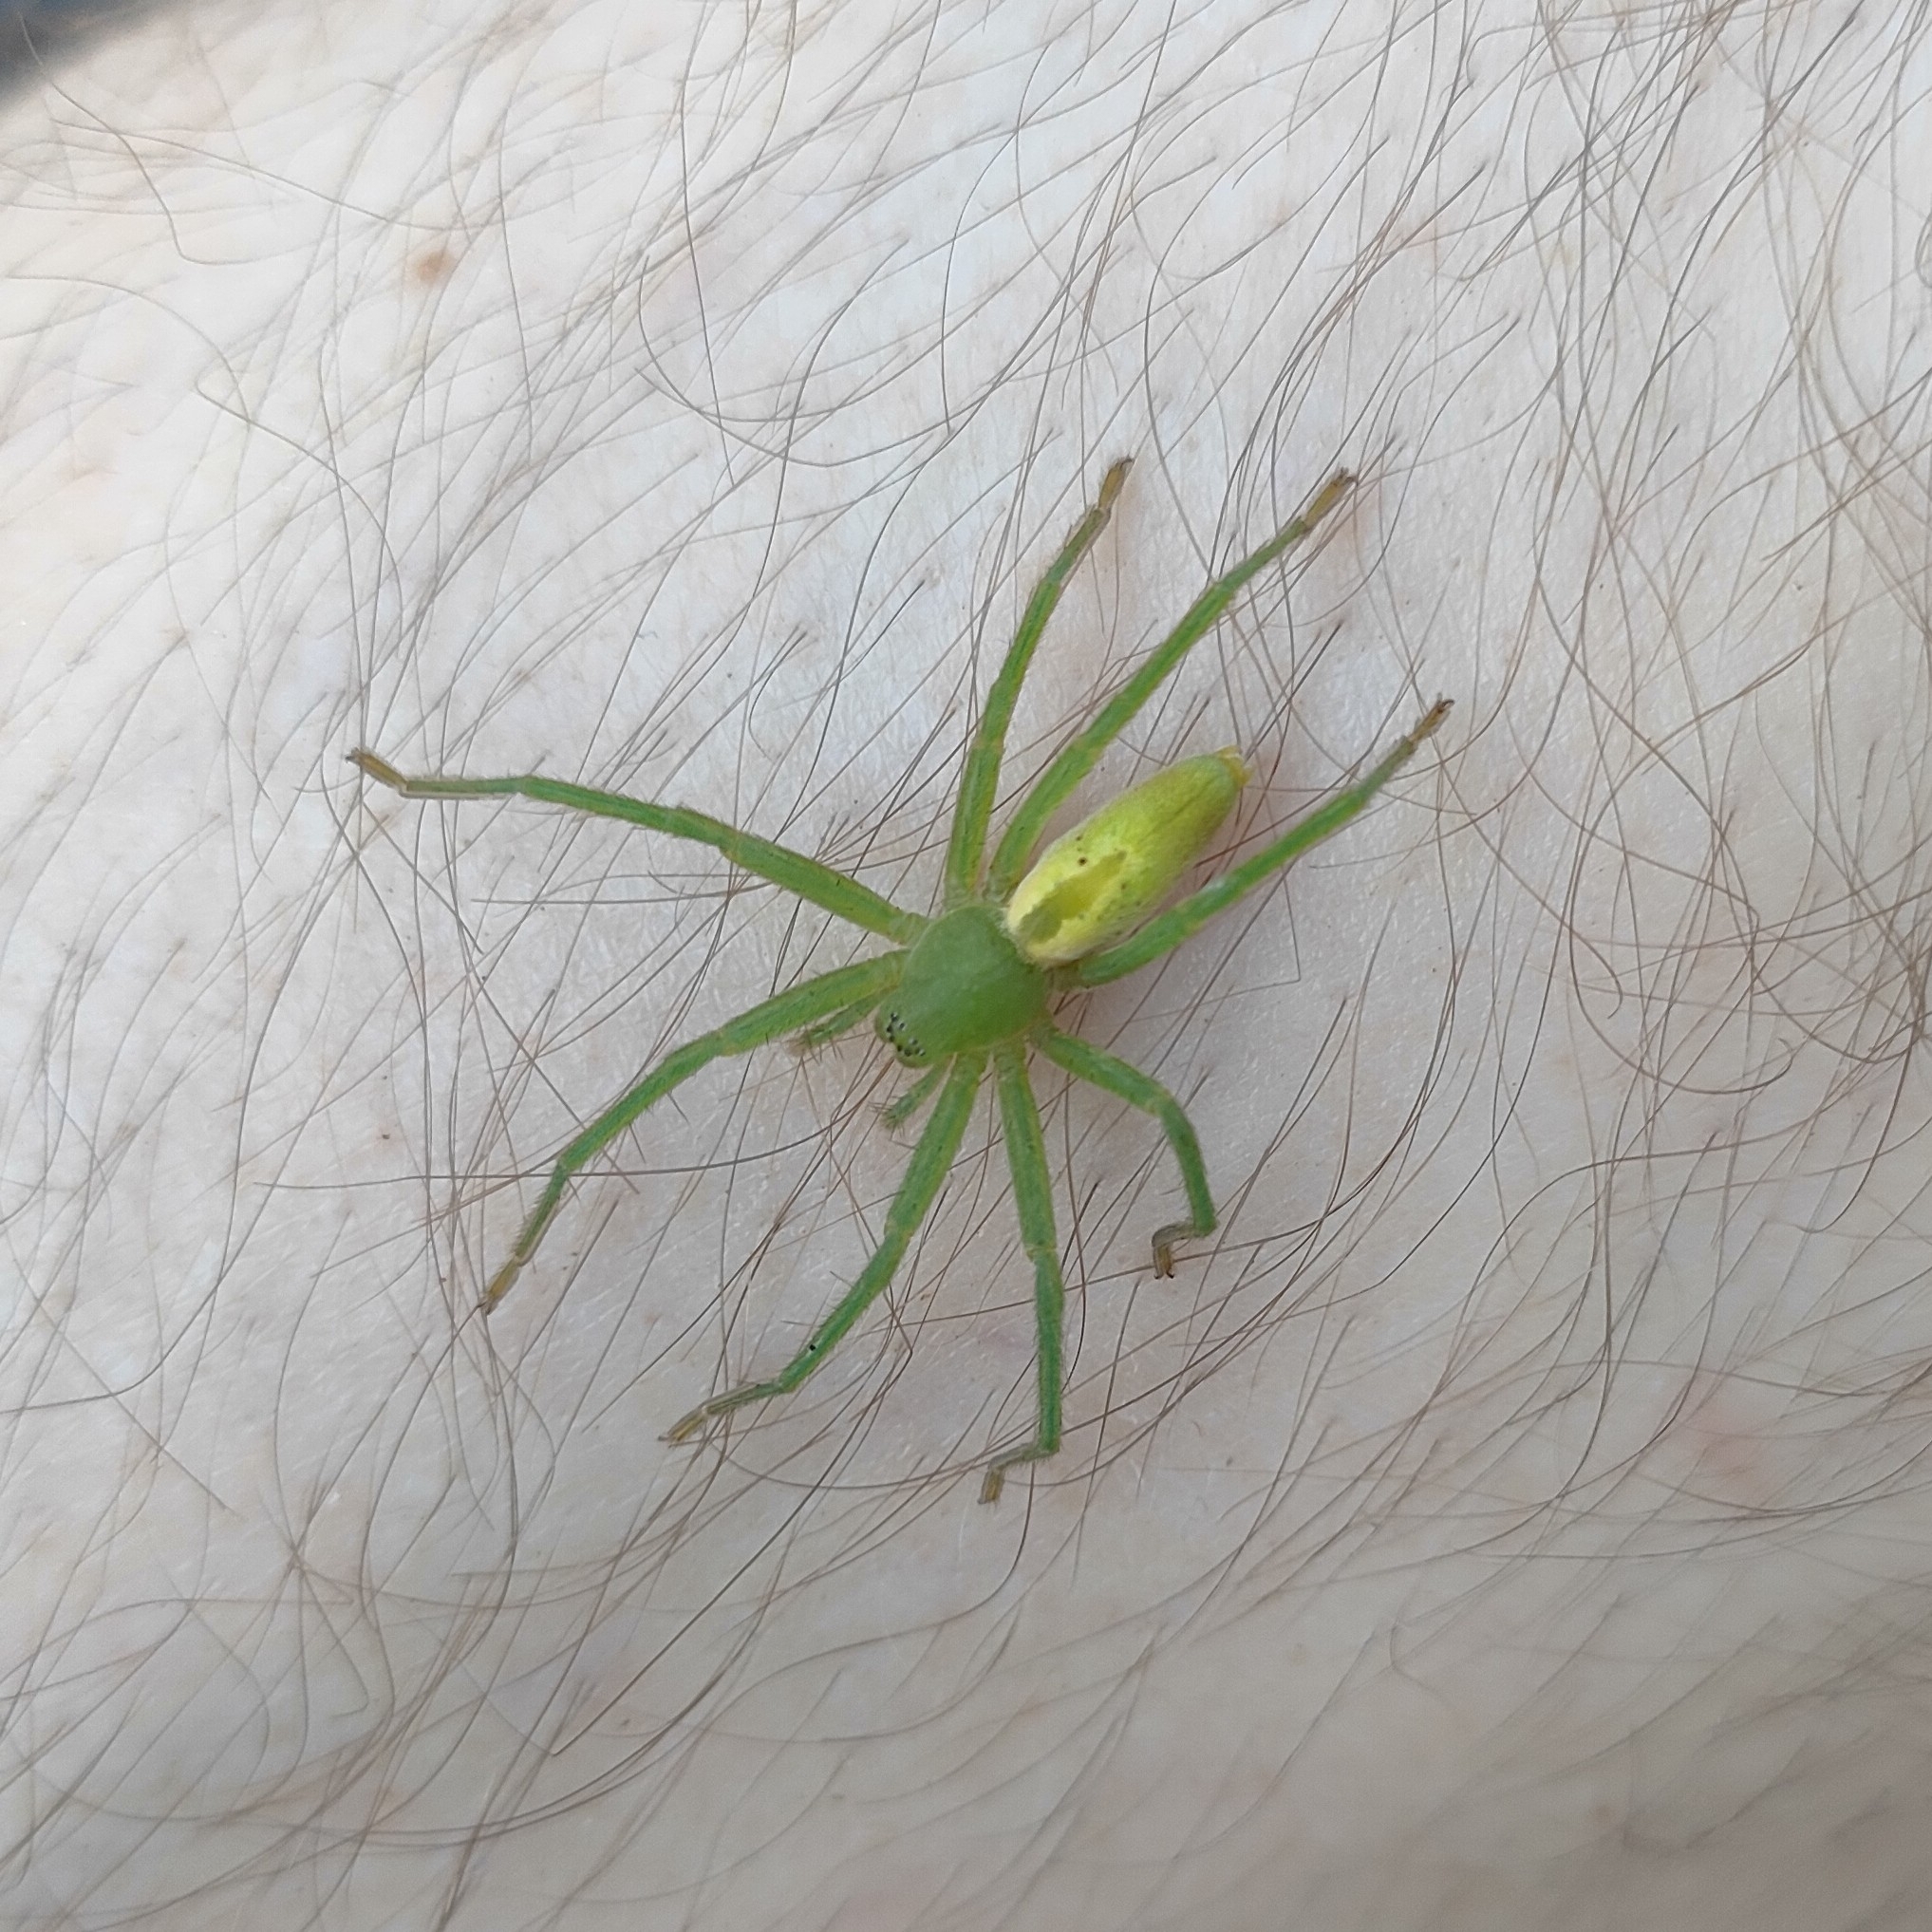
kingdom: Animalia
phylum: Arthropoda
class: Arachnida
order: Araneae
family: Sparassidae
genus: Micrommata
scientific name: Micrommata virescens
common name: Green spider
